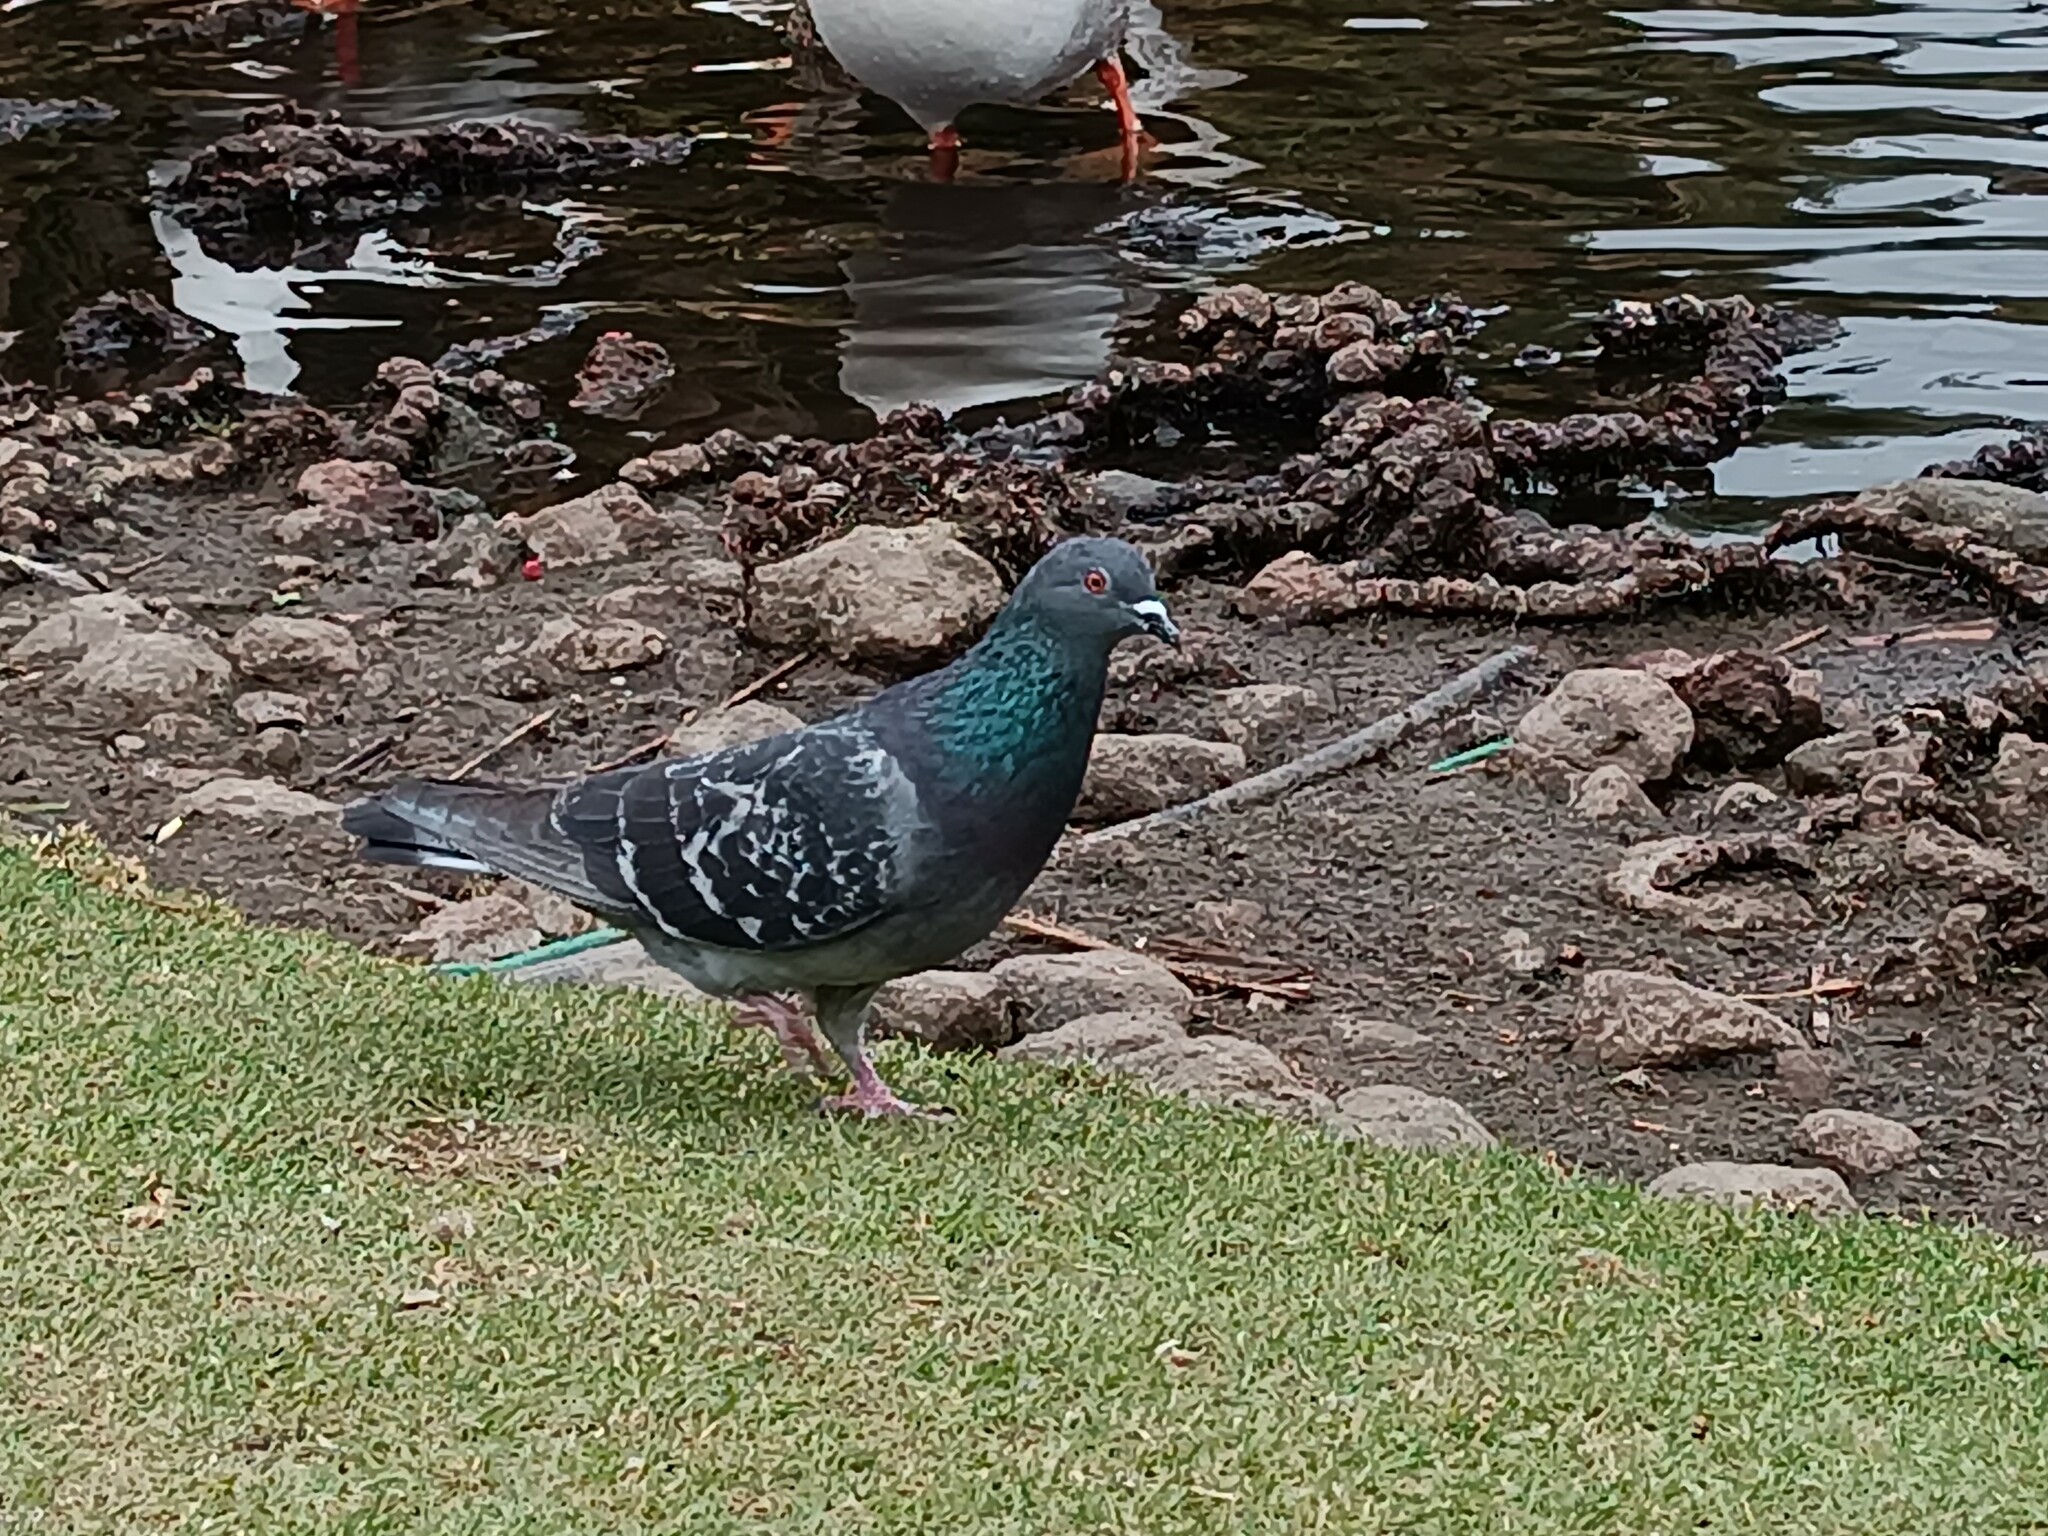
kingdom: Animalia
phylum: Chordata
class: Aves
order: Columbiformes
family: Columbidae
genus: Columba
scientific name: Columba livia
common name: Rock pigeon
